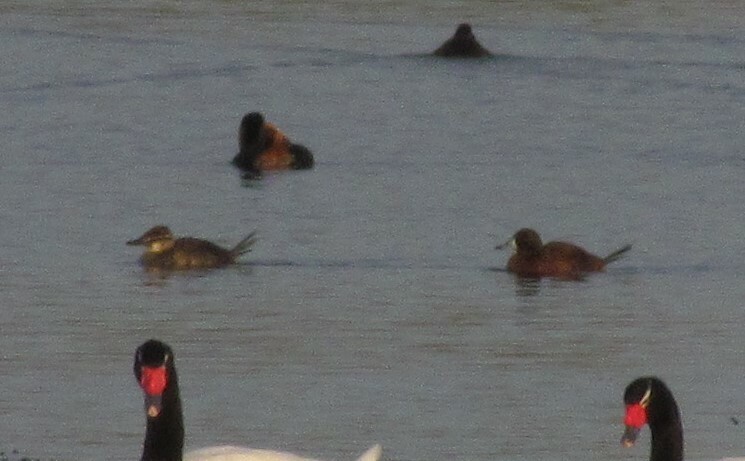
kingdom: Animalia
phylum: Chordata
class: Aves
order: Anseriformes
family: Anatidae
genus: Oxyura
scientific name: Oxyura vittata
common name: Lake duck
